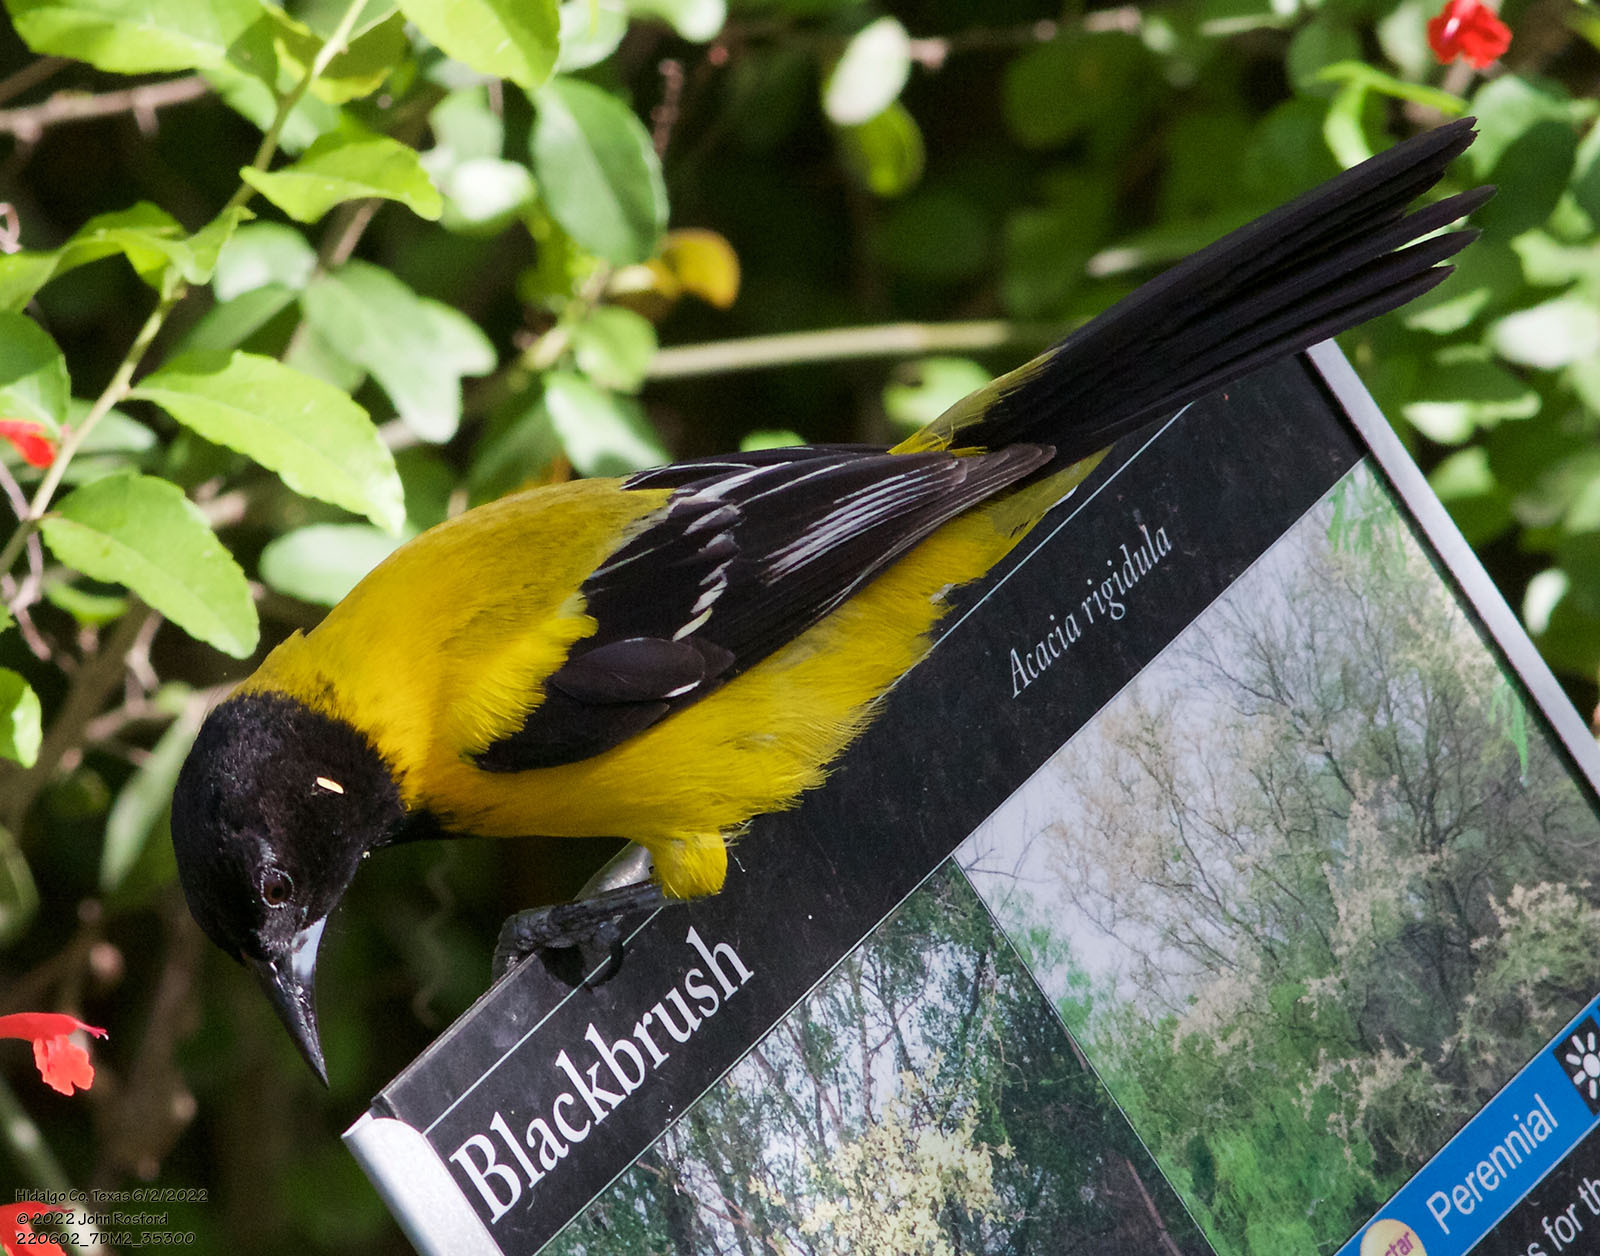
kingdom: Animalia
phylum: Chordata
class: Aves
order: Passeriformes
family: Icteridae
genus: Icterus
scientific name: Icterus graduacauda
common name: Audubon's oriole
